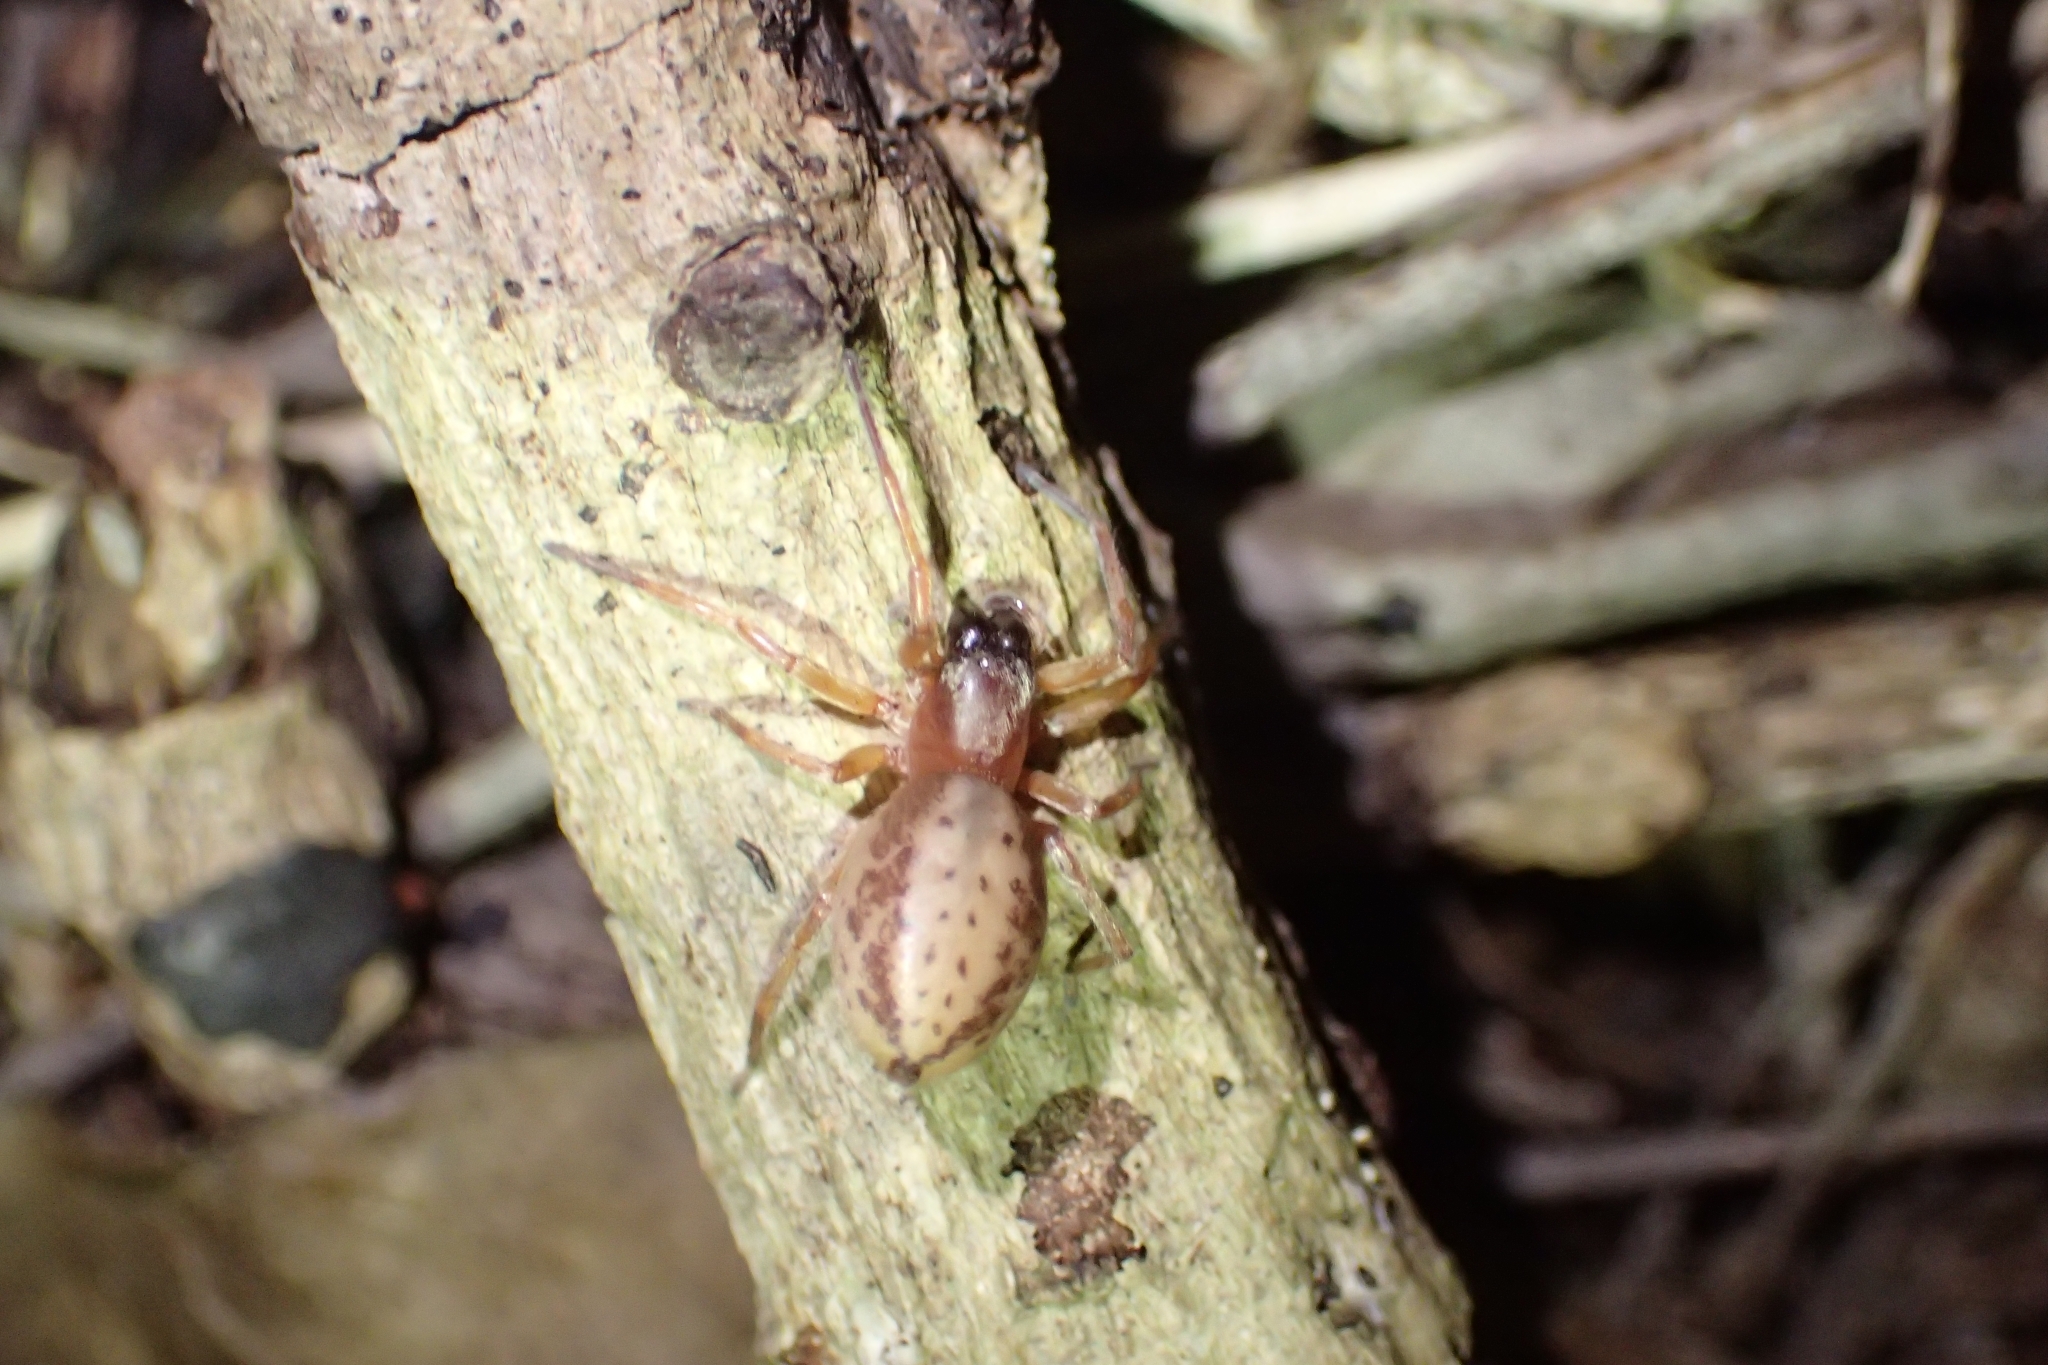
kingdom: Animalia
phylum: Arthropoda
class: Arachnida
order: Araneae
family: Clubionidae
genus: Clubiona
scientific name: Clubiona peculiaris
